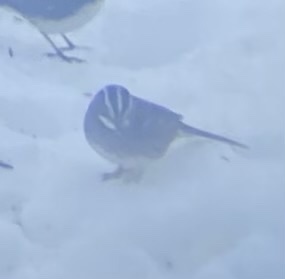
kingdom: Animalia
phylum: Chordata
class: Aves
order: Passeriformes
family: Passerellidae
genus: Zonotrichia
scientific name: Zonotrichia albicollis
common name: White-throated sparrow
